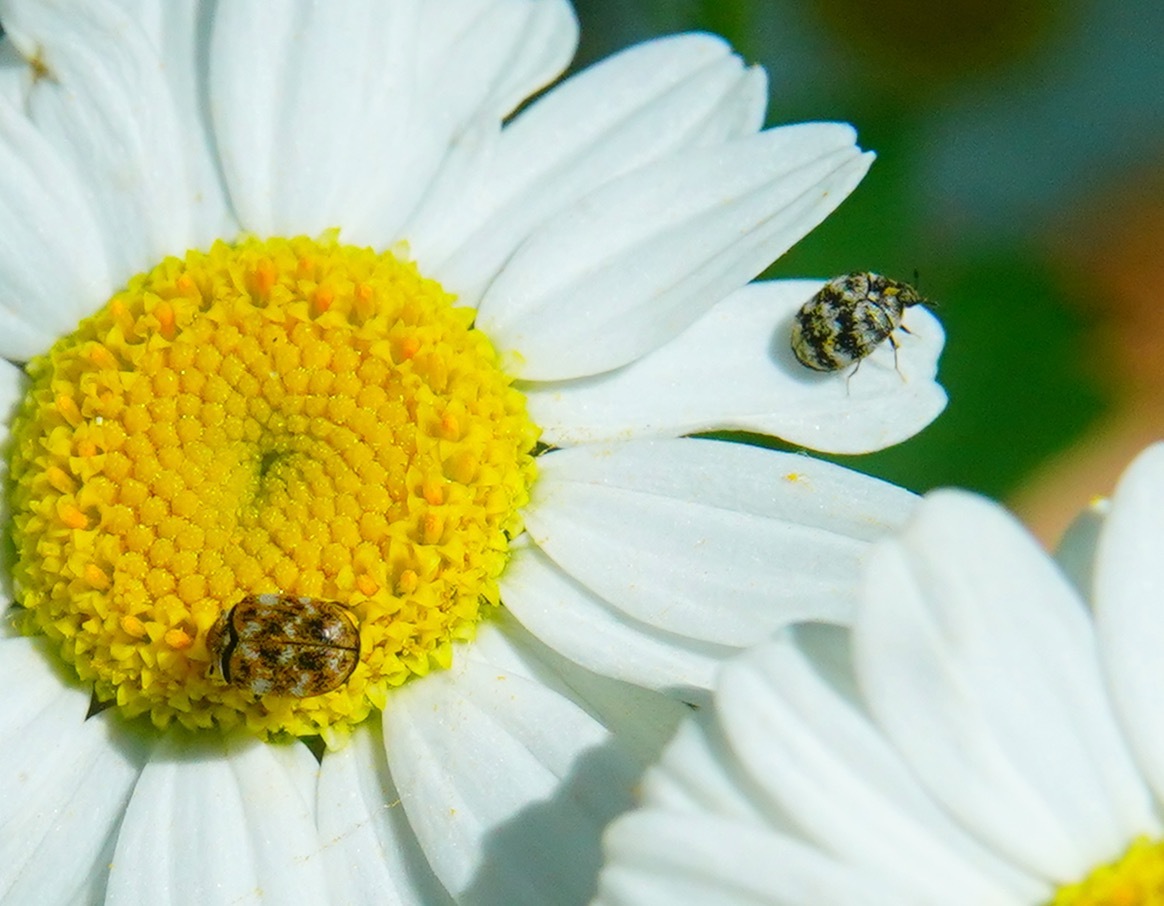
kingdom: Animalia
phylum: Arthropoda
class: Insecta
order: Coleoptera
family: Dermestidae
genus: Anthrenus
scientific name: Anthrenus verbasci
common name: Varied carpet beetle
